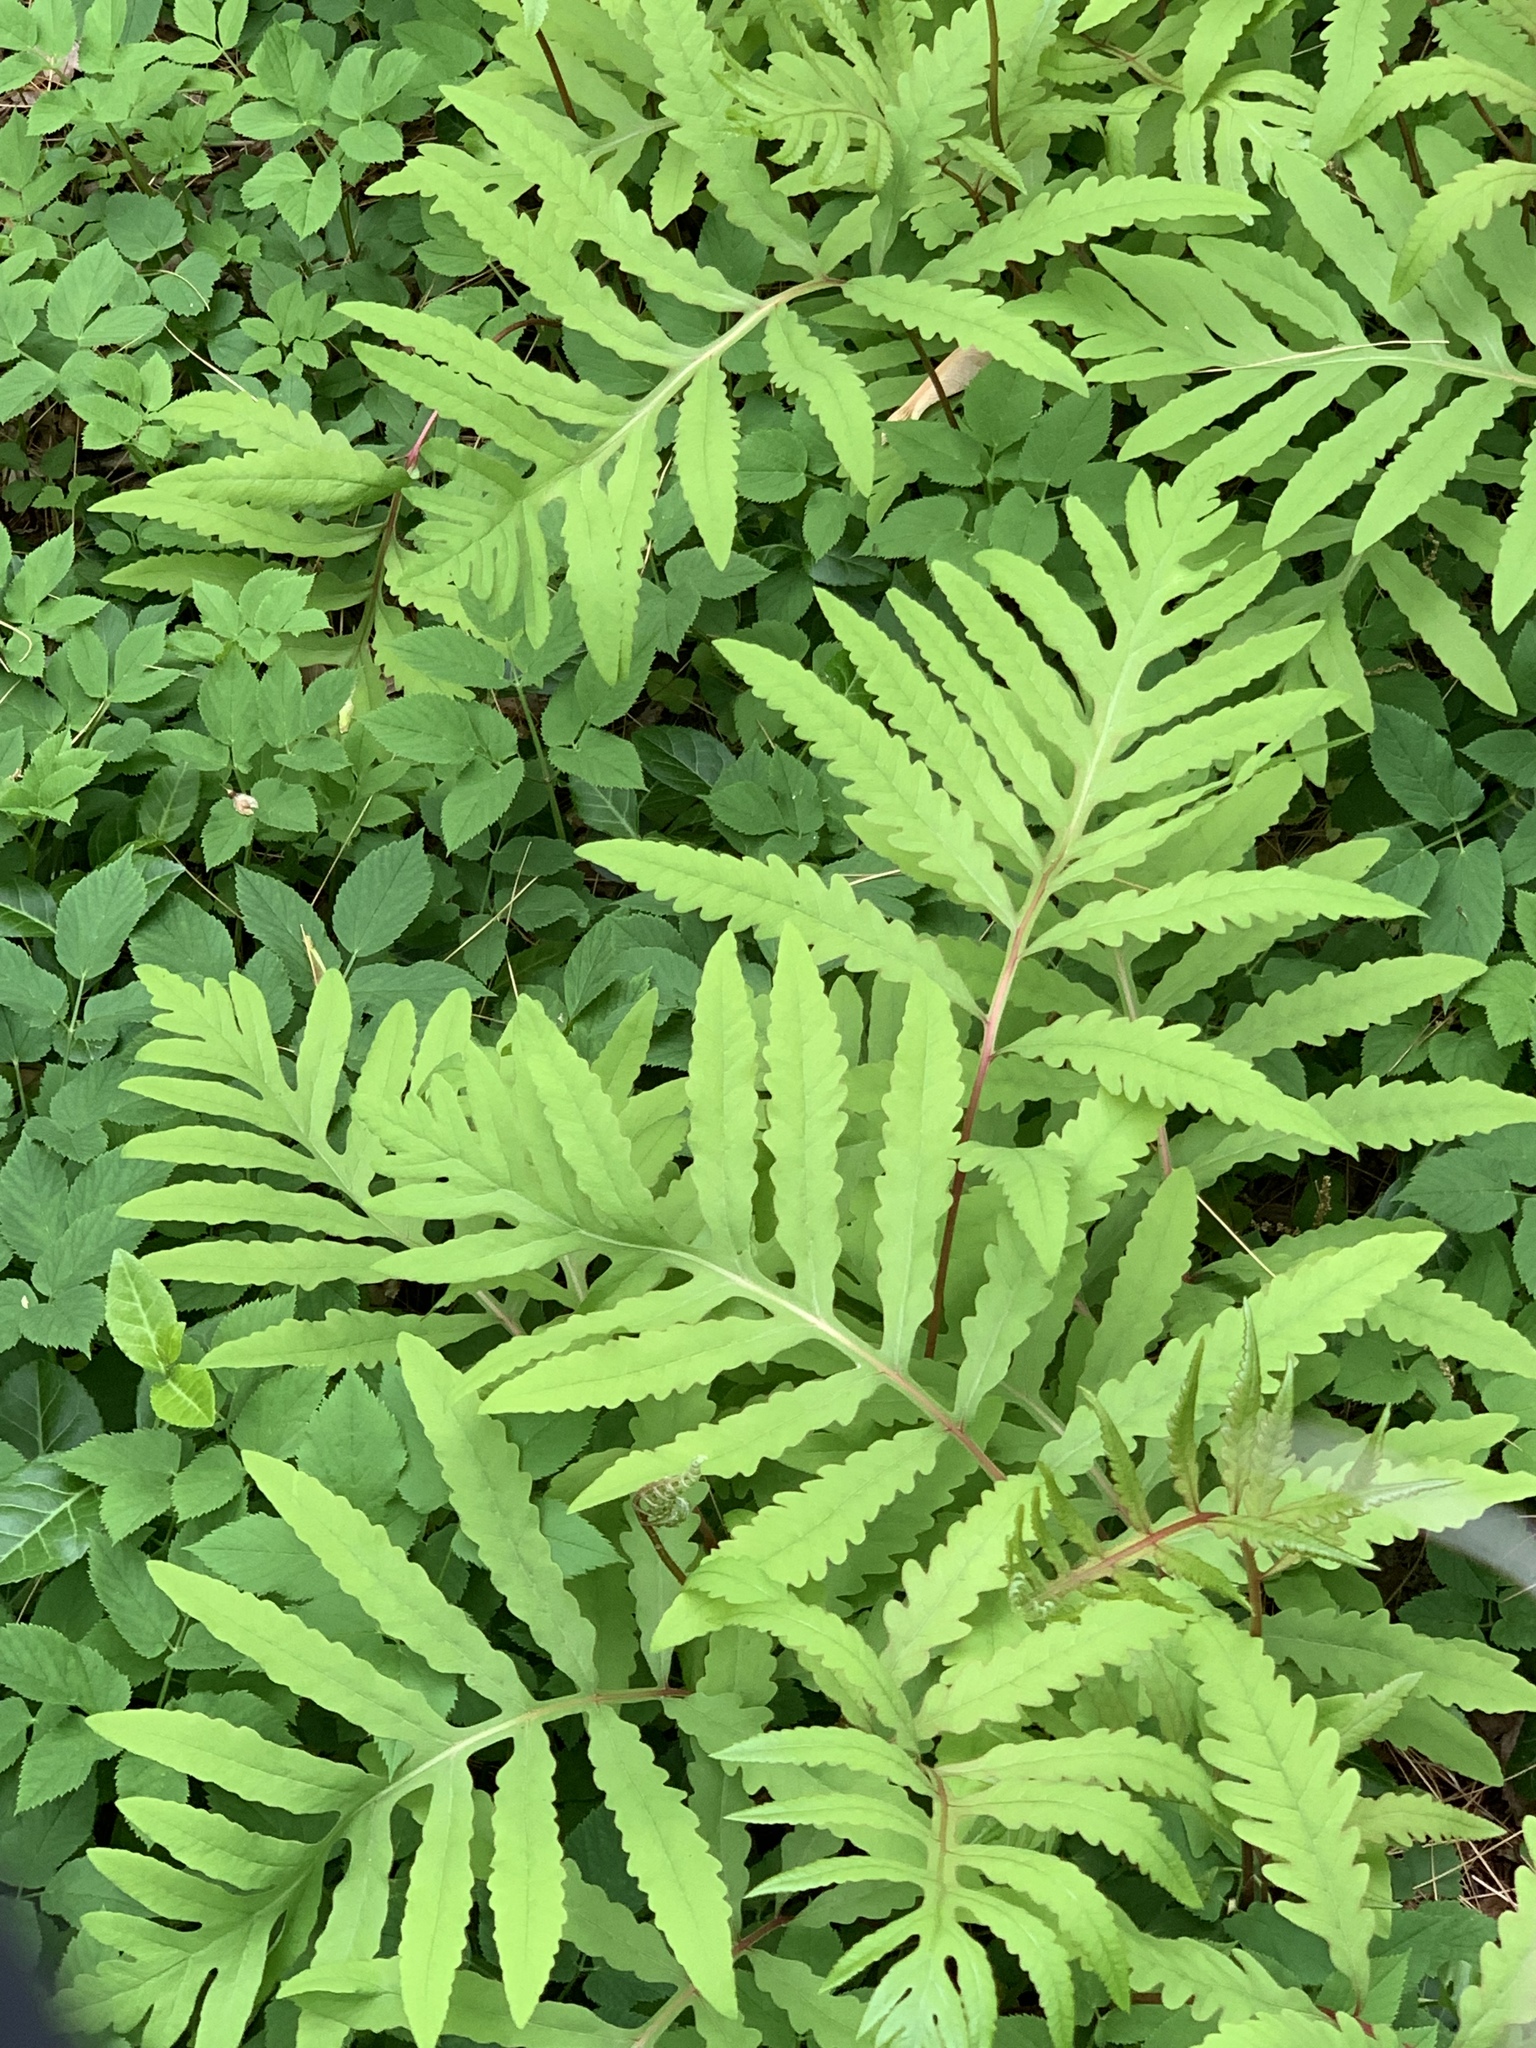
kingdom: Plantae
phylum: Tracheophyta
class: Polypodiopsida
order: Polypodiales
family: Onocleaceae
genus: Onoclea
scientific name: Onoclea sensibilis
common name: Sensitive fern
